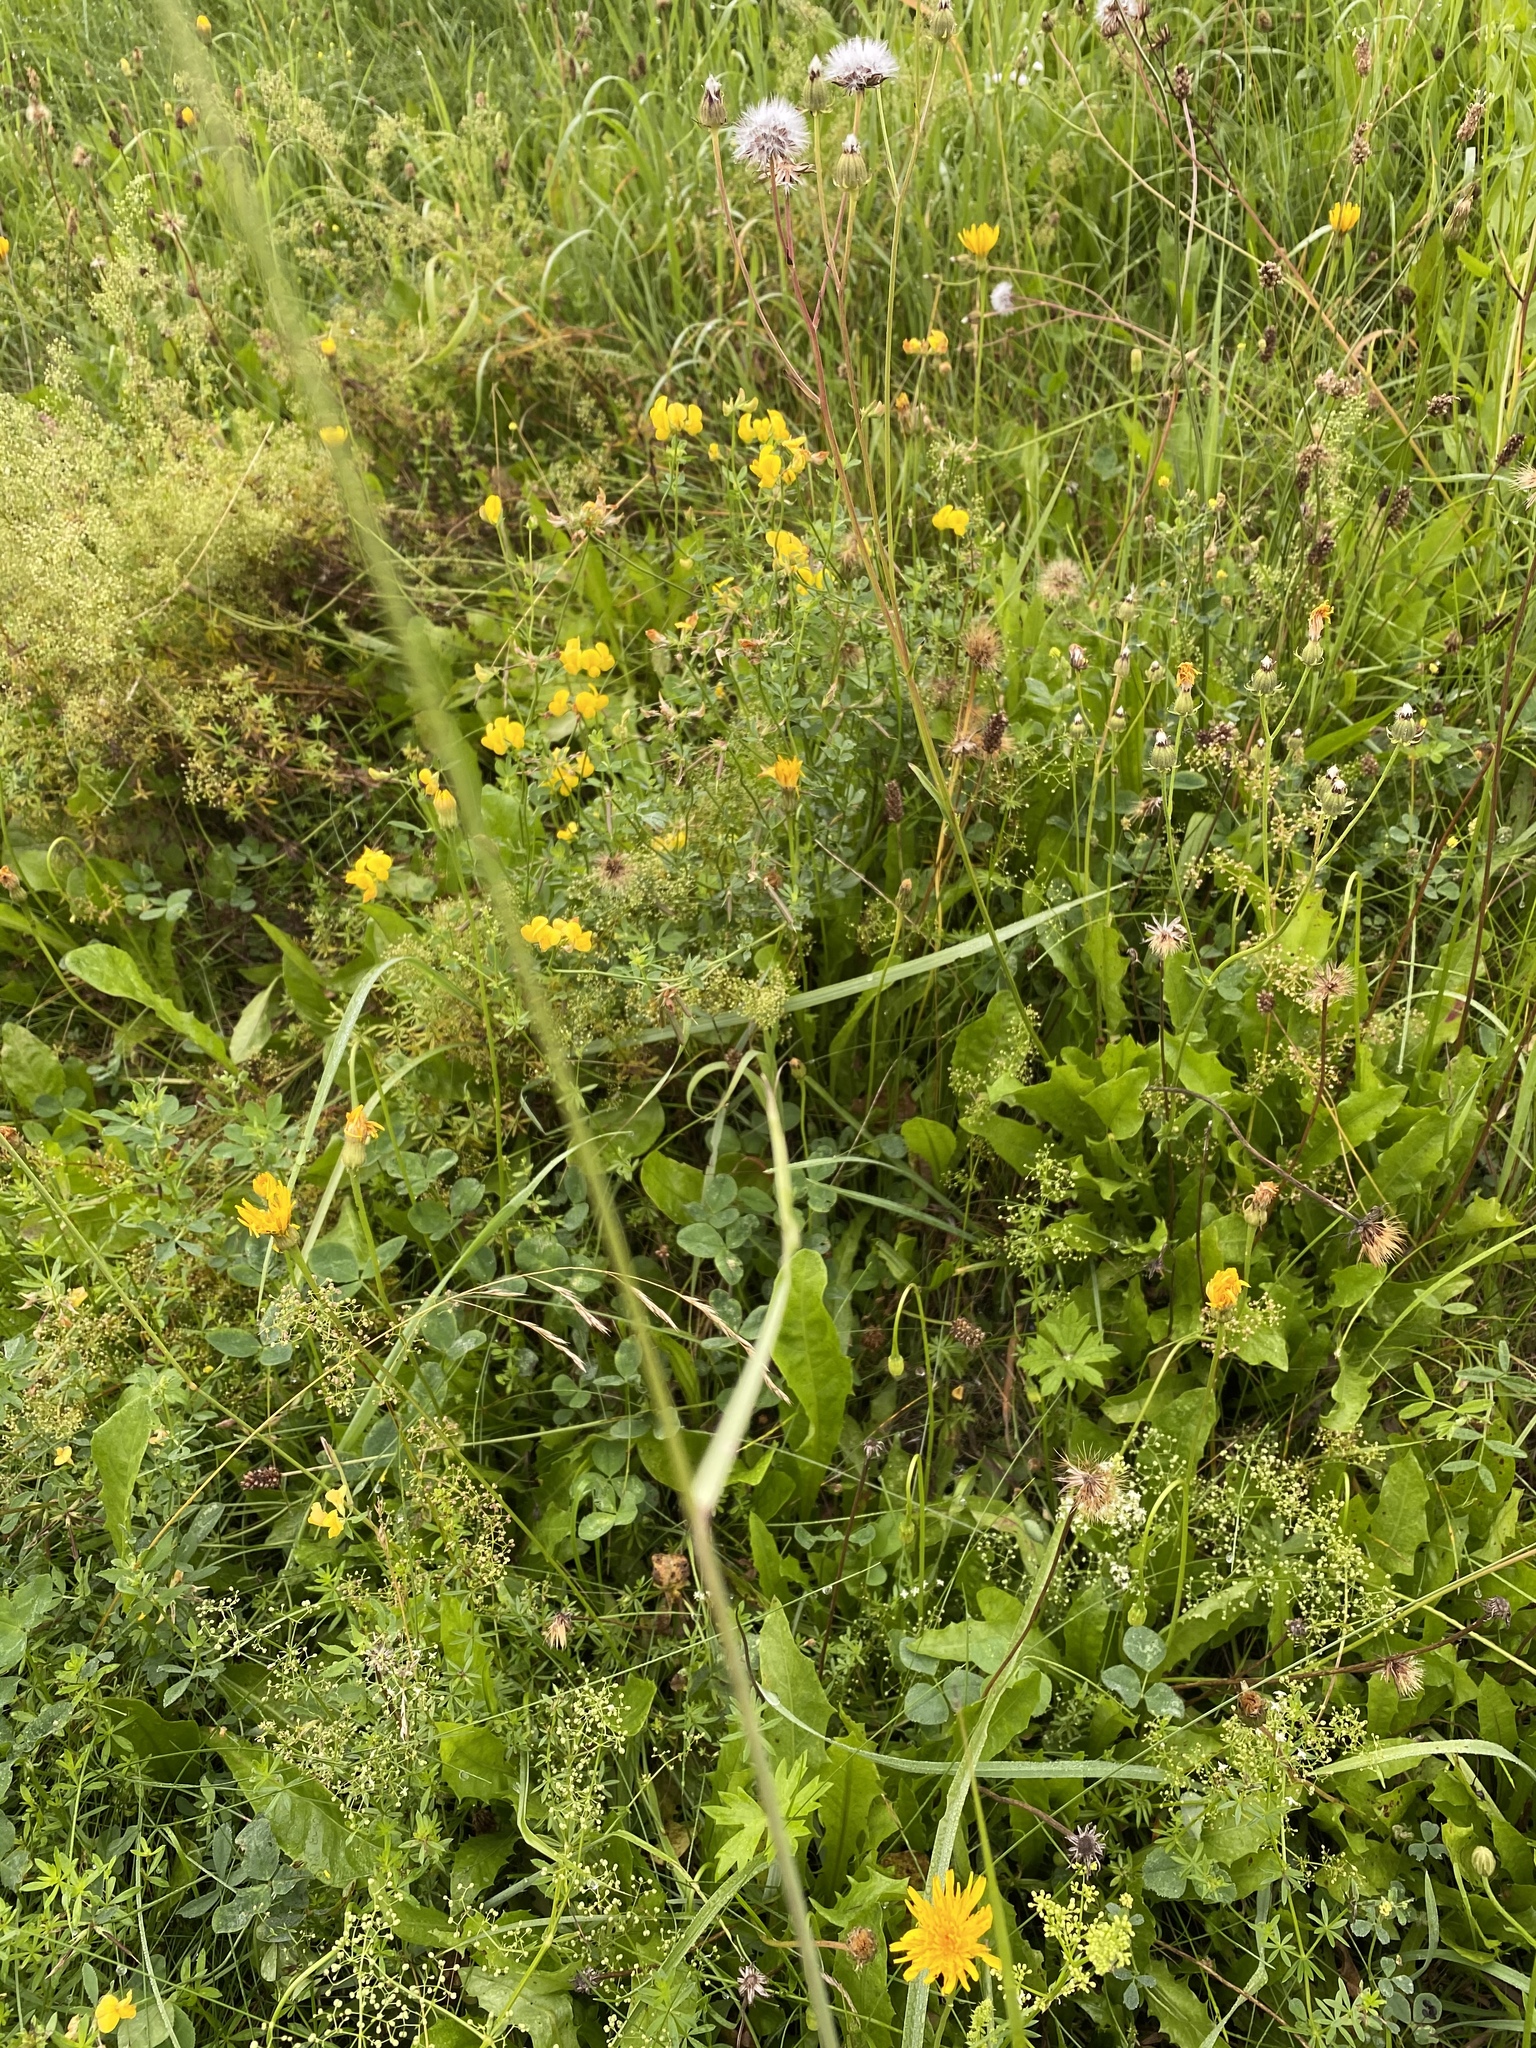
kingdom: Plantae
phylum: Tracheophyta
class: Liliopsida
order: Poales
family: Poaceae
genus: Calamagrostis
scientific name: Calamagrostis epigejos
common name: Wood small-reed
